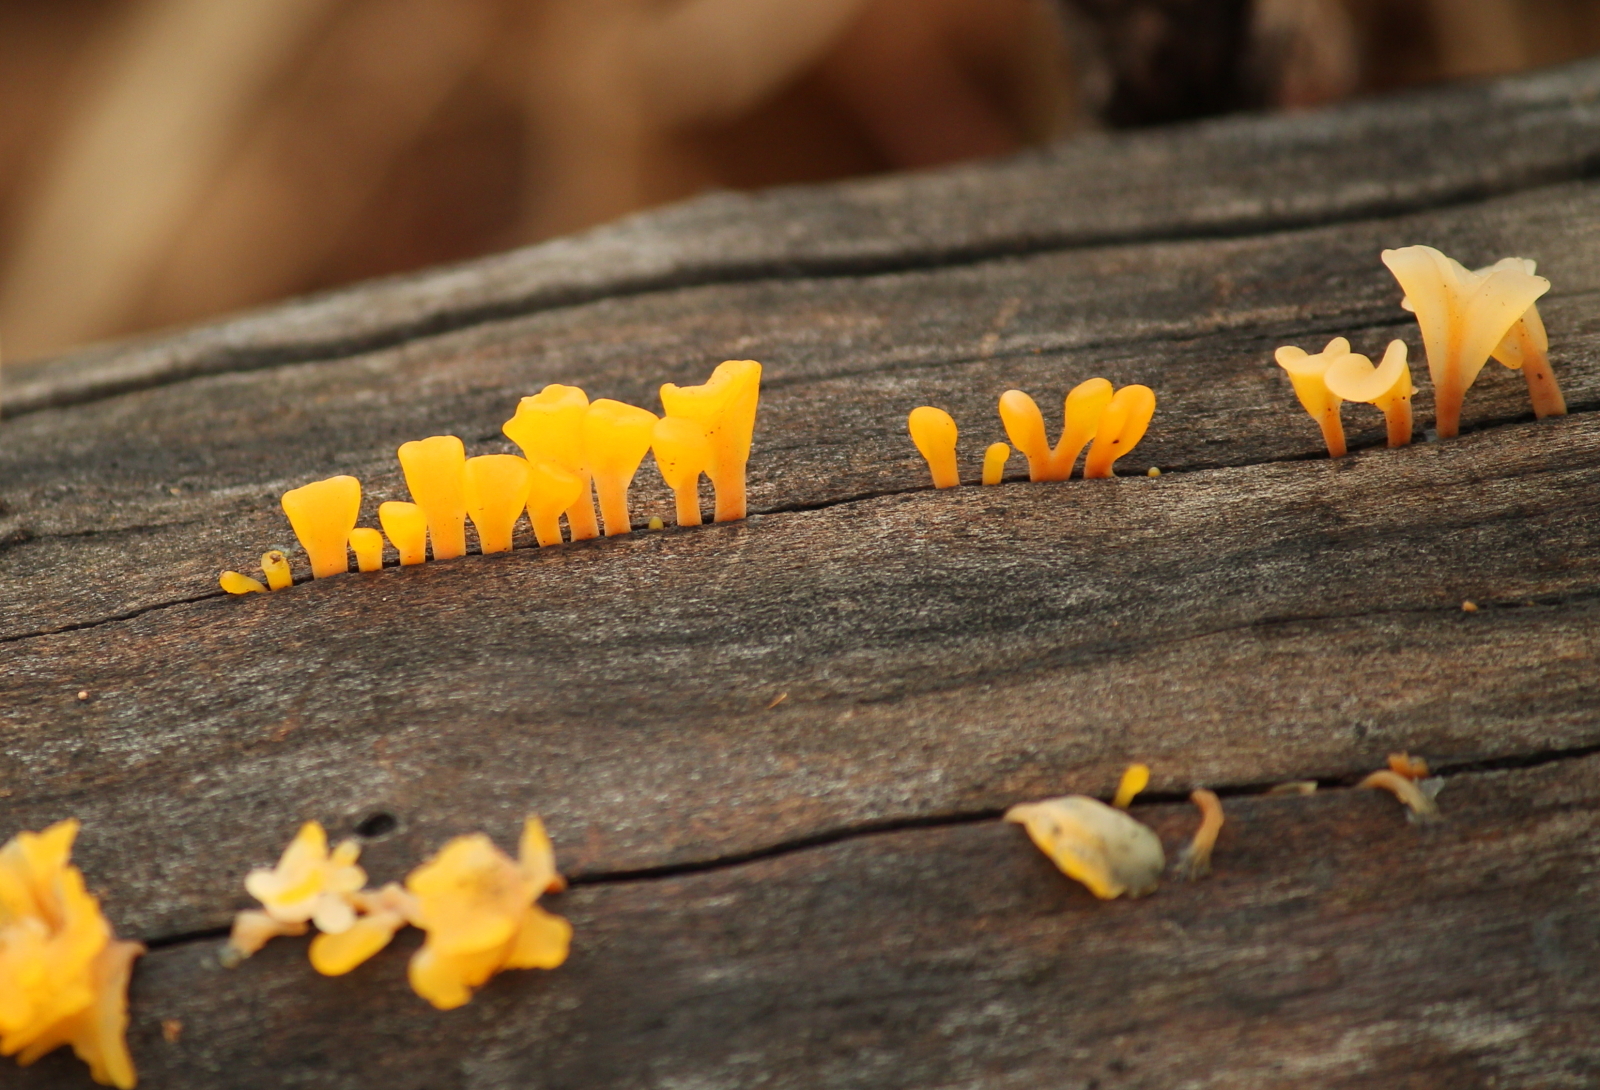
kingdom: Fungi
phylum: Basidiomycota
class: Dacrymycetes
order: Dacrymycetales
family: Dacrymycetaceae
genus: Dacrymyces
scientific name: Dacrymyces spathularius
